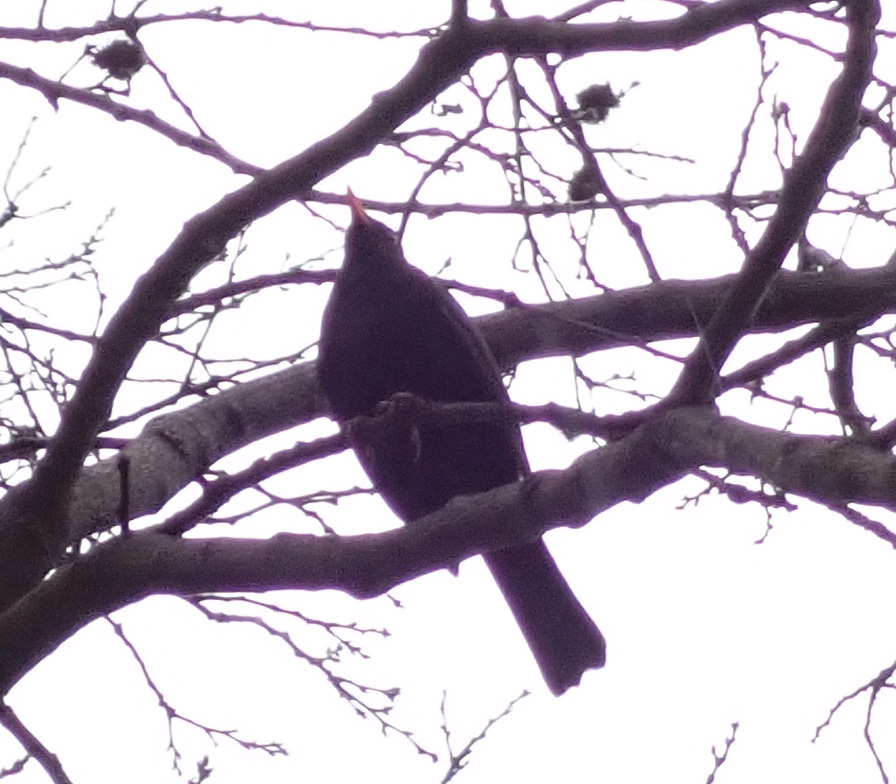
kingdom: Animalia
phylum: Chordata
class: Aves
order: Passeriformes
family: Turdidae
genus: Turdus
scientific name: Turdus merula
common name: Common blackbird
